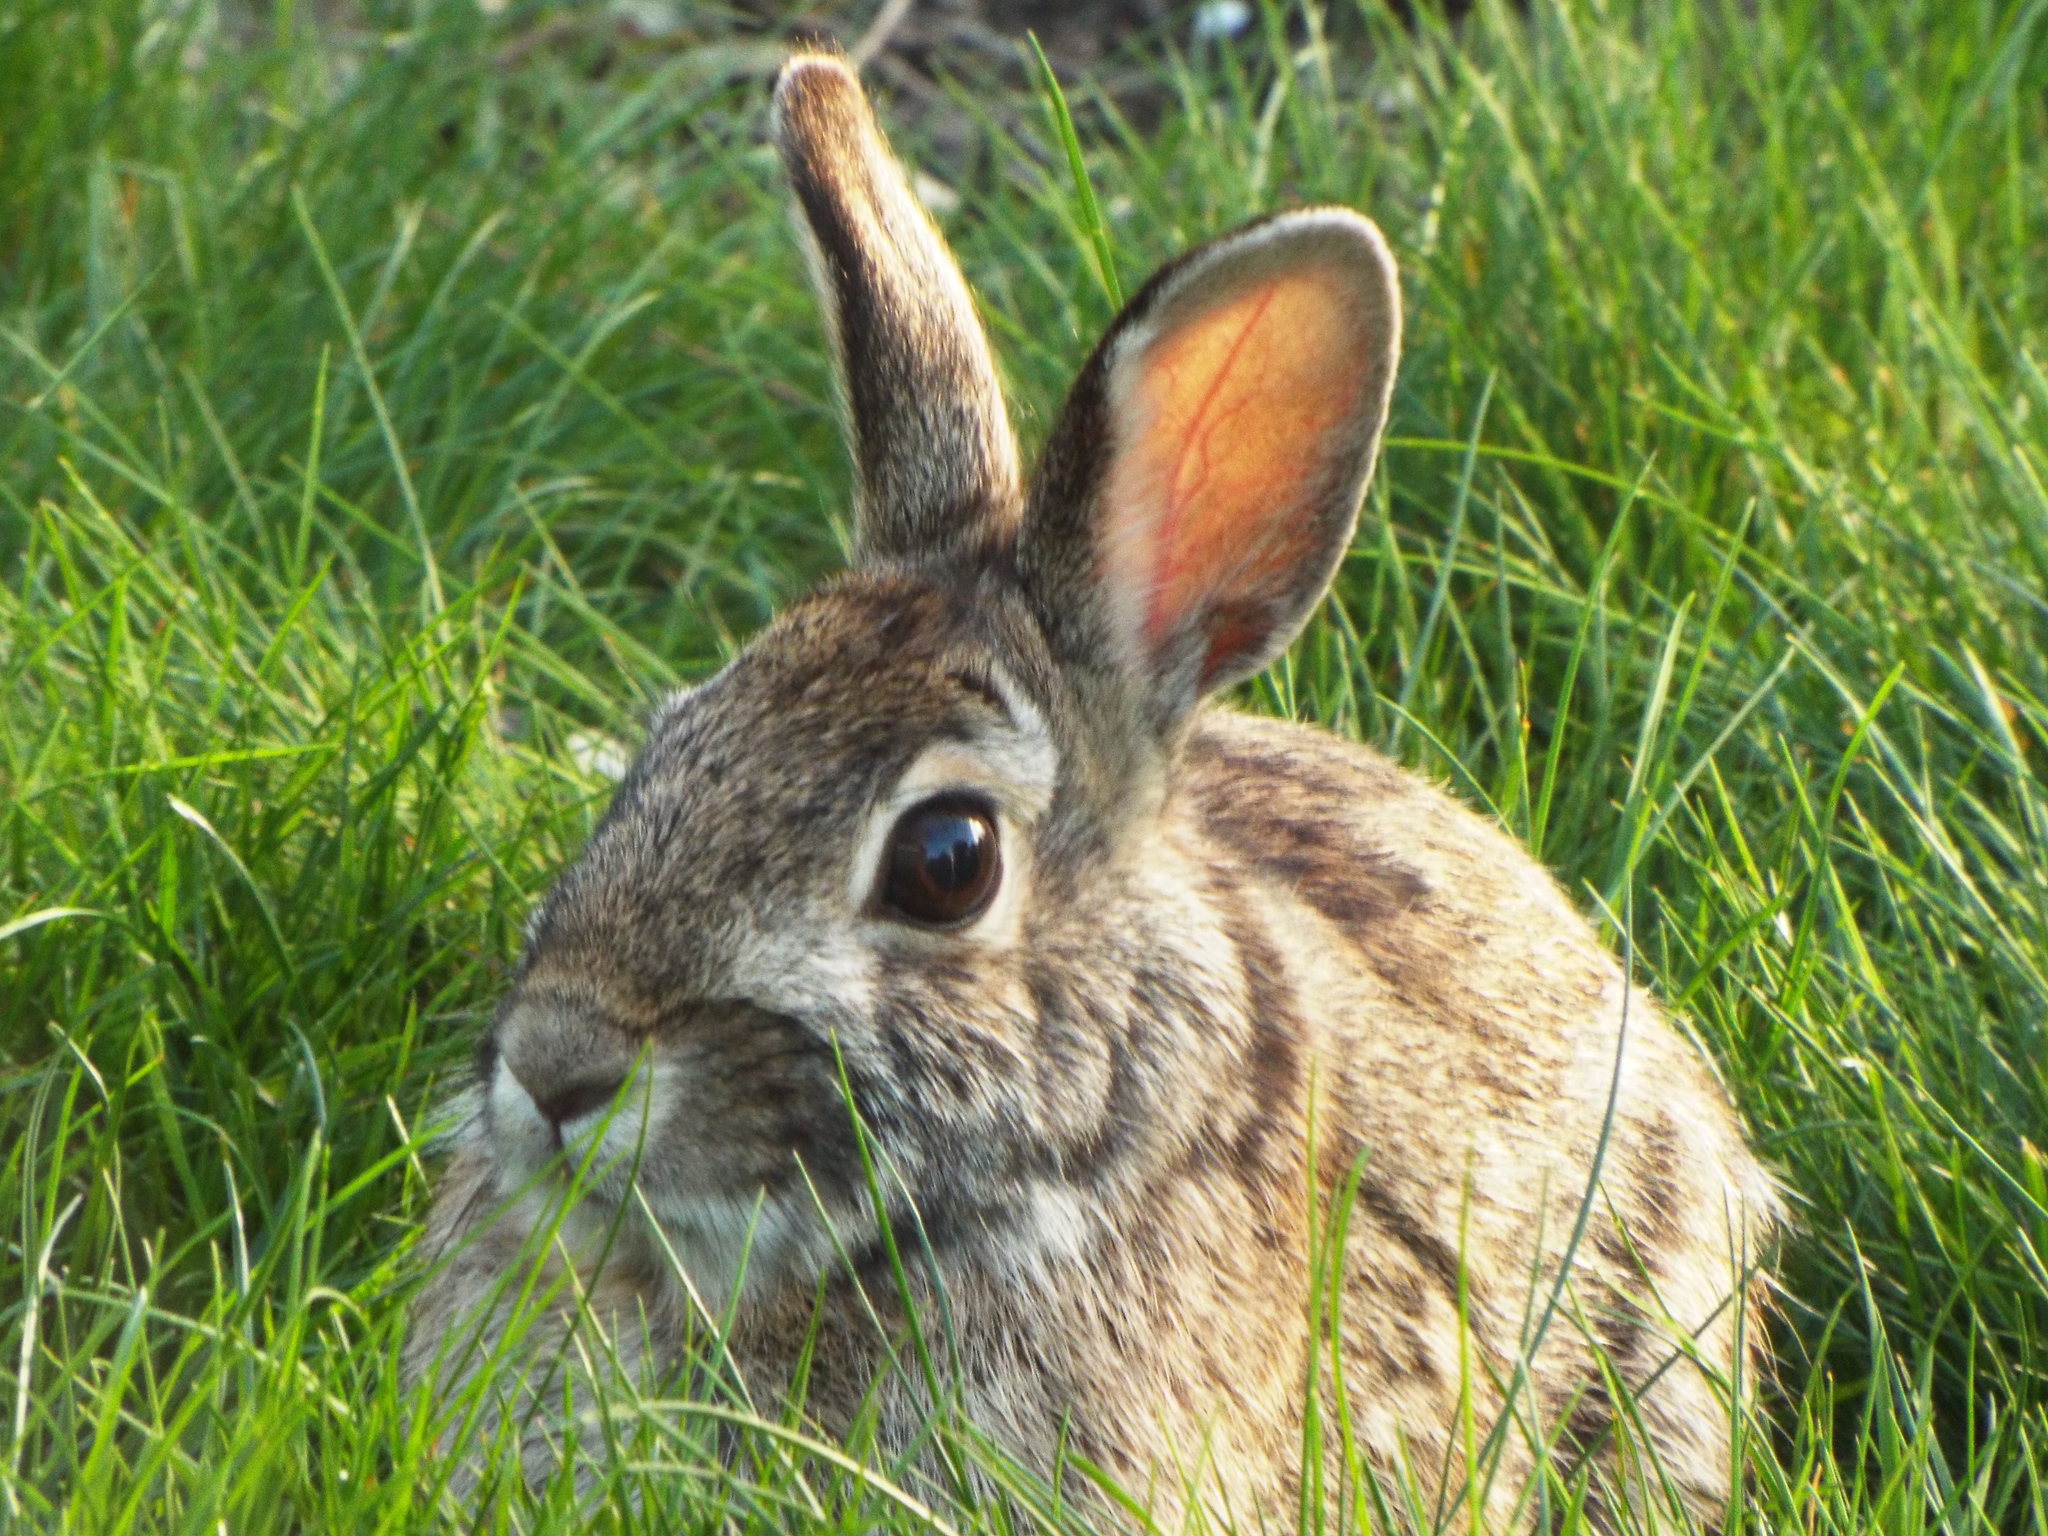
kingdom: Animalia
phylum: Chordata
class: Mammalia
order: Lagomorpha
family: Leporidae
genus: Sylvilagus
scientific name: Sylvilagus floridanus
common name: Eastern cottontail
